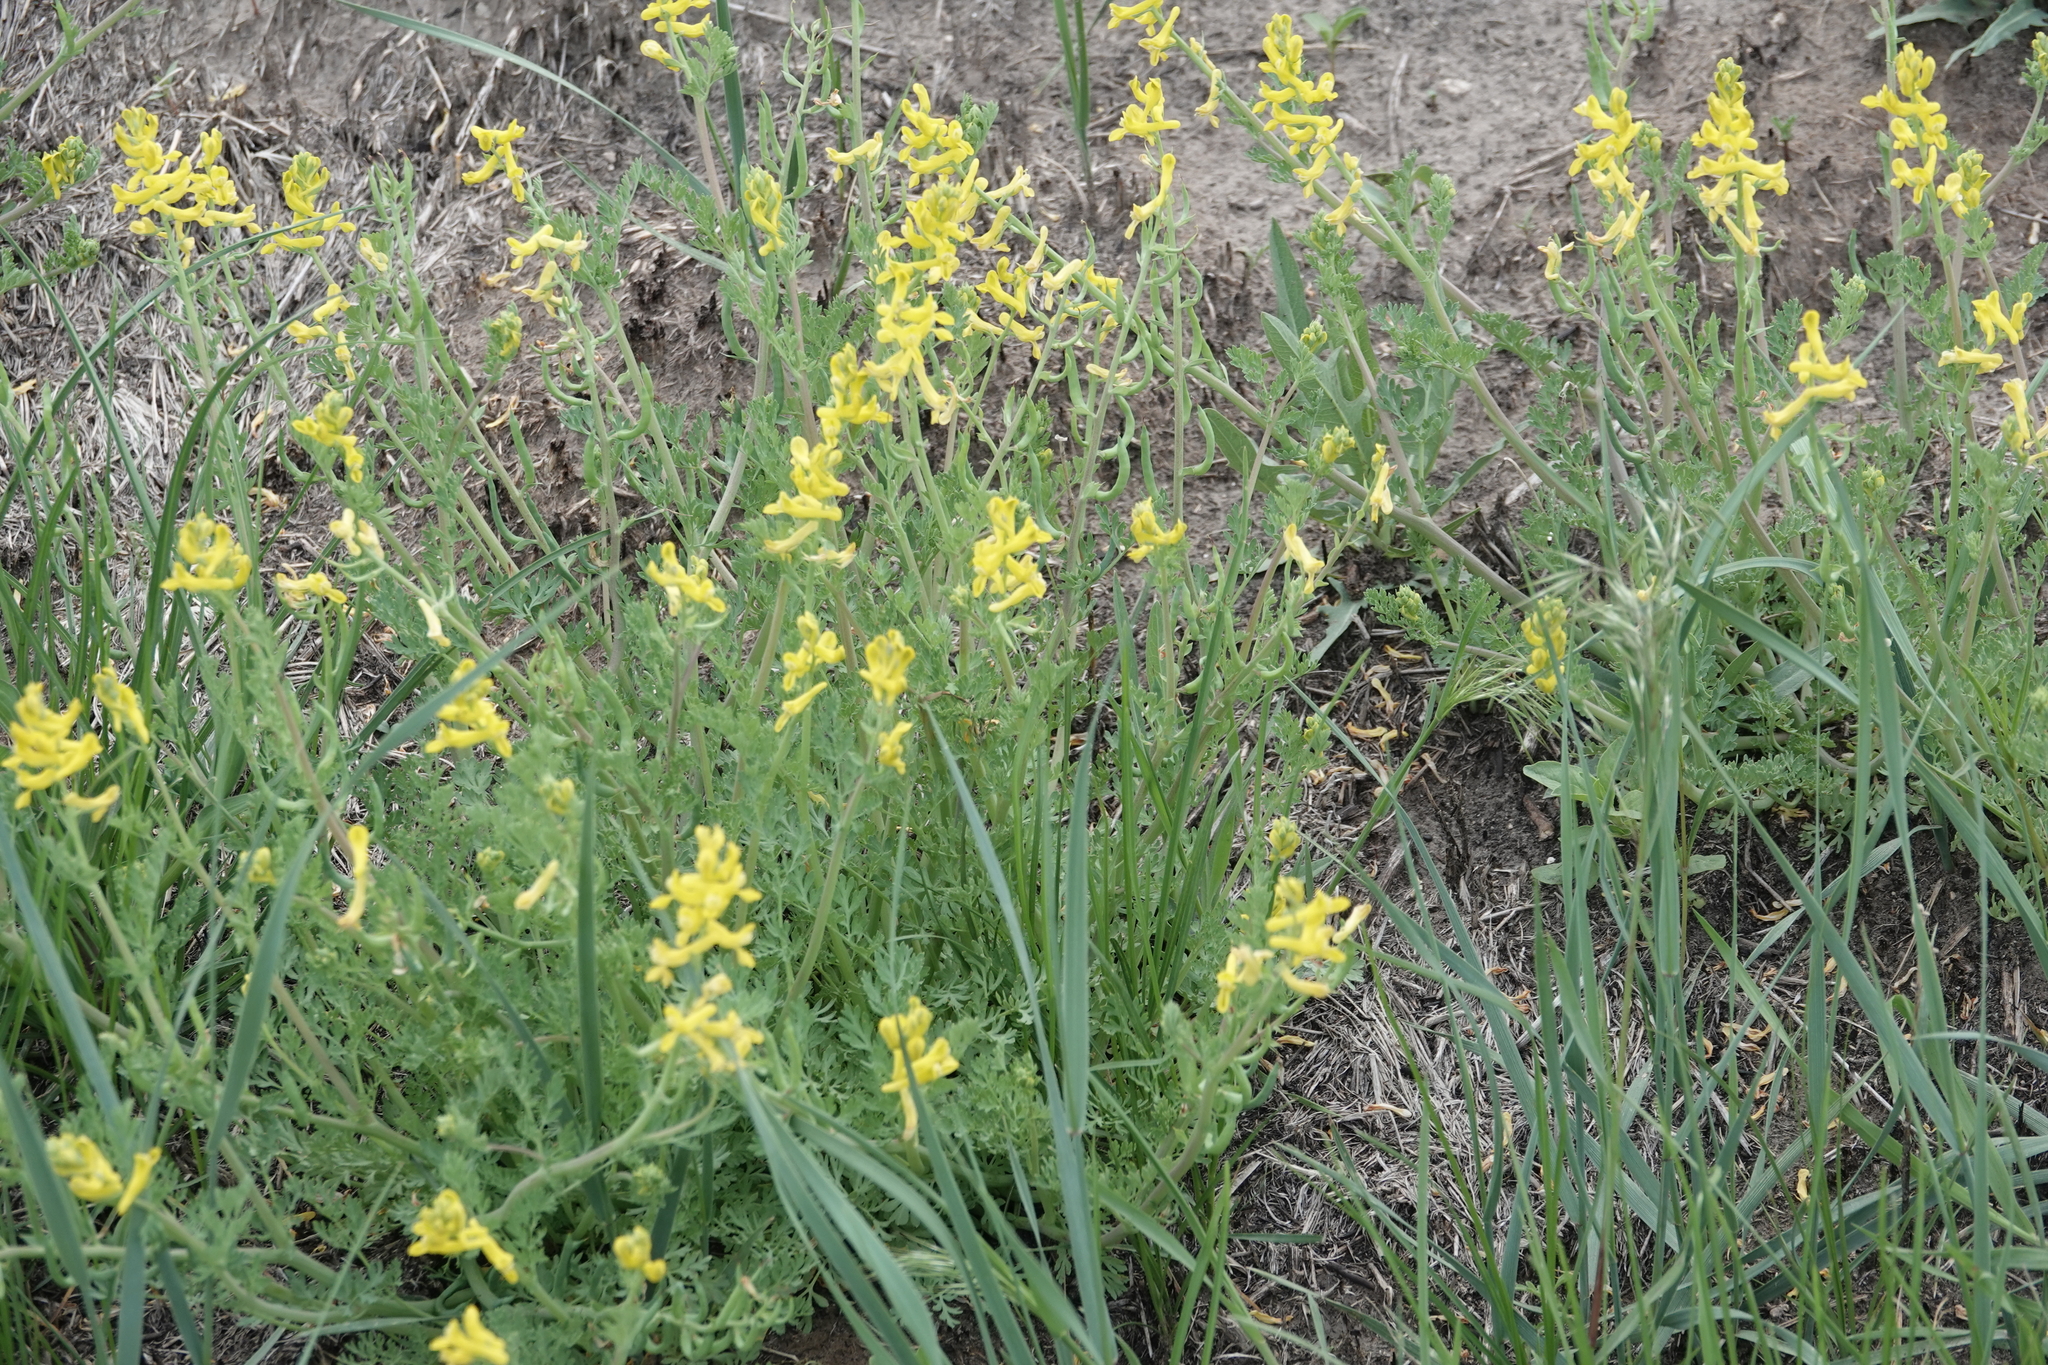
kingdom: Plantae
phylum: Tracheophyta
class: Magnoliopsida
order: Ranunculales
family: Papaveraceae
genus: Corydalis
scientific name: Corydalis aurea
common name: Golden corydalis
